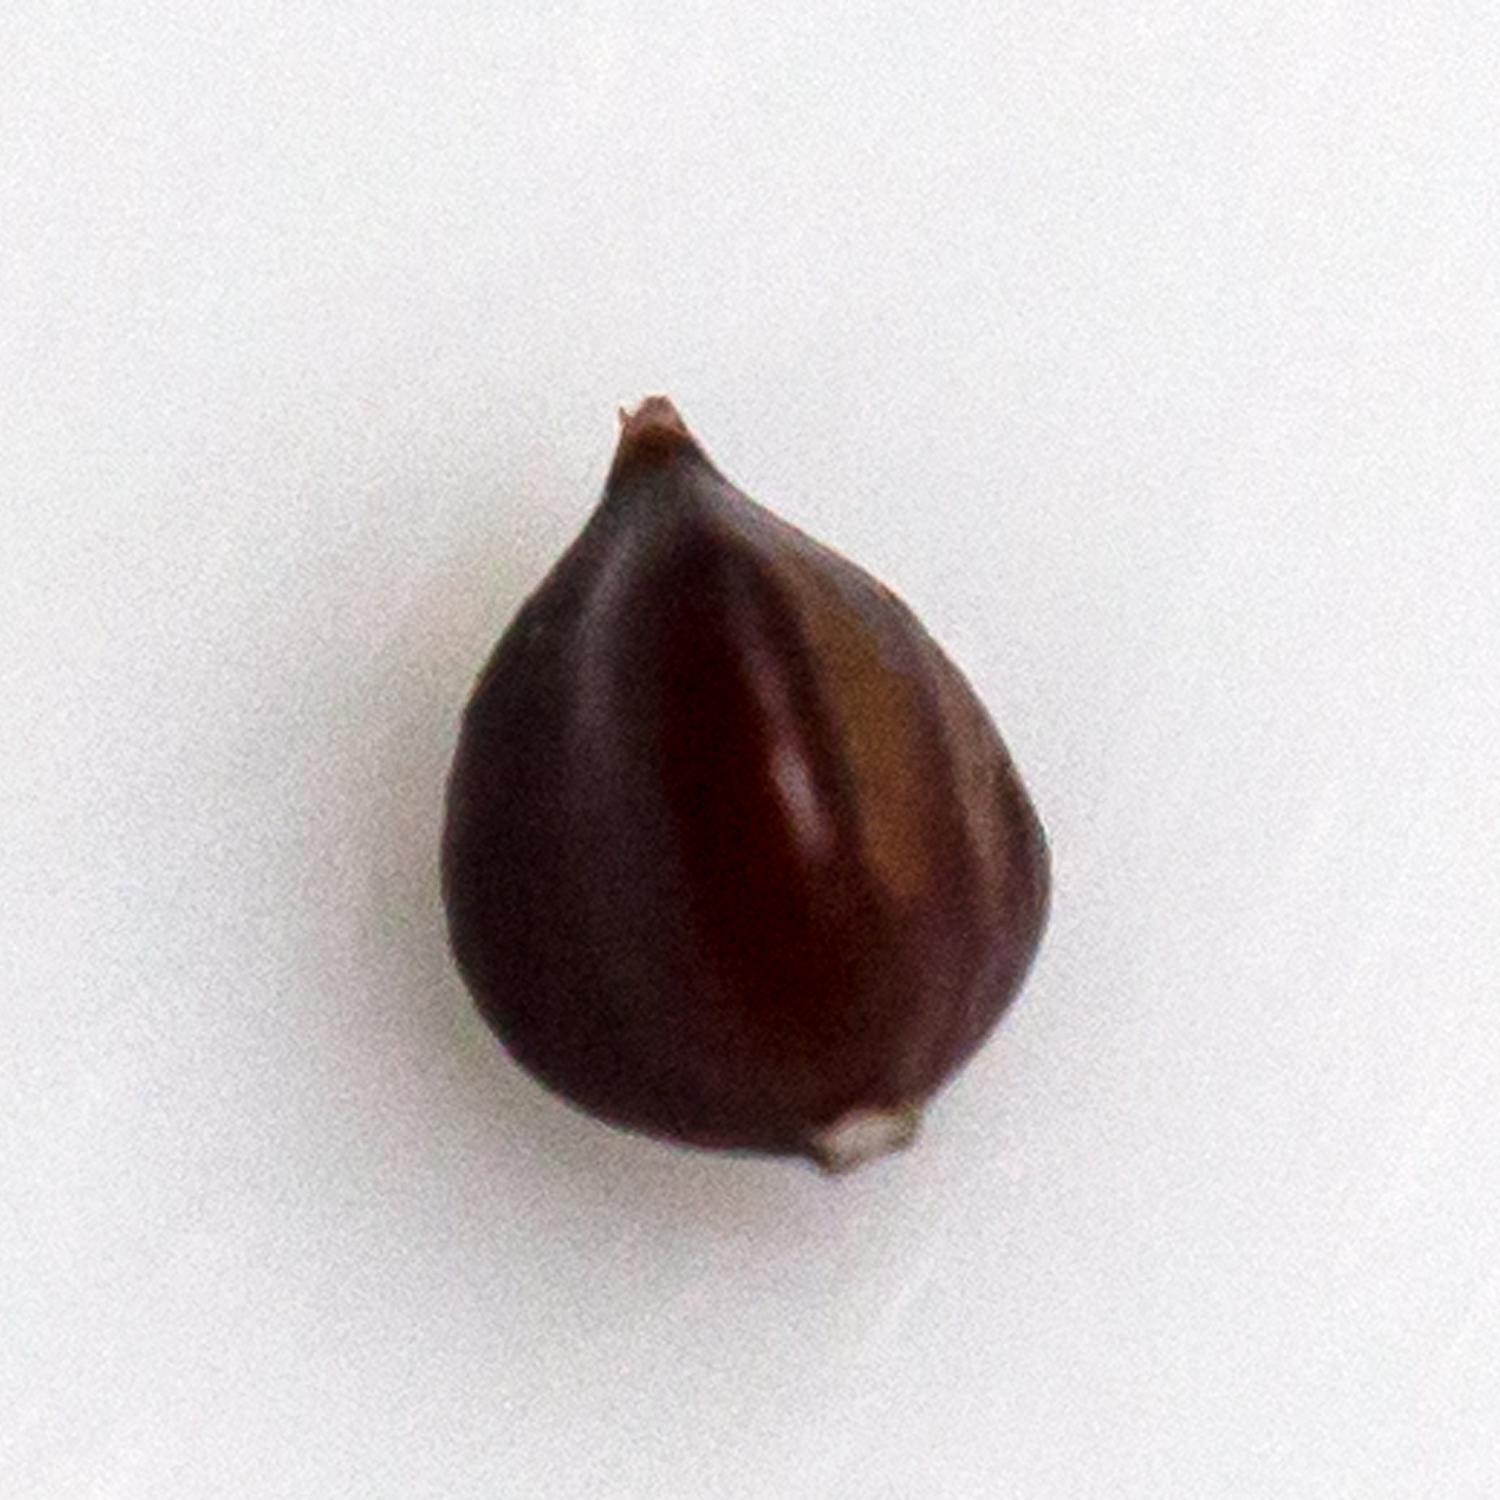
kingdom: Plantae
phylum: Tracheophyta
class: Magnoliopsida
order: Caryophyllales
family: Polygonaceae
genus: Persicaria
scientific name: Persicaria longiseta
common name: Bristly lady's-thumb
